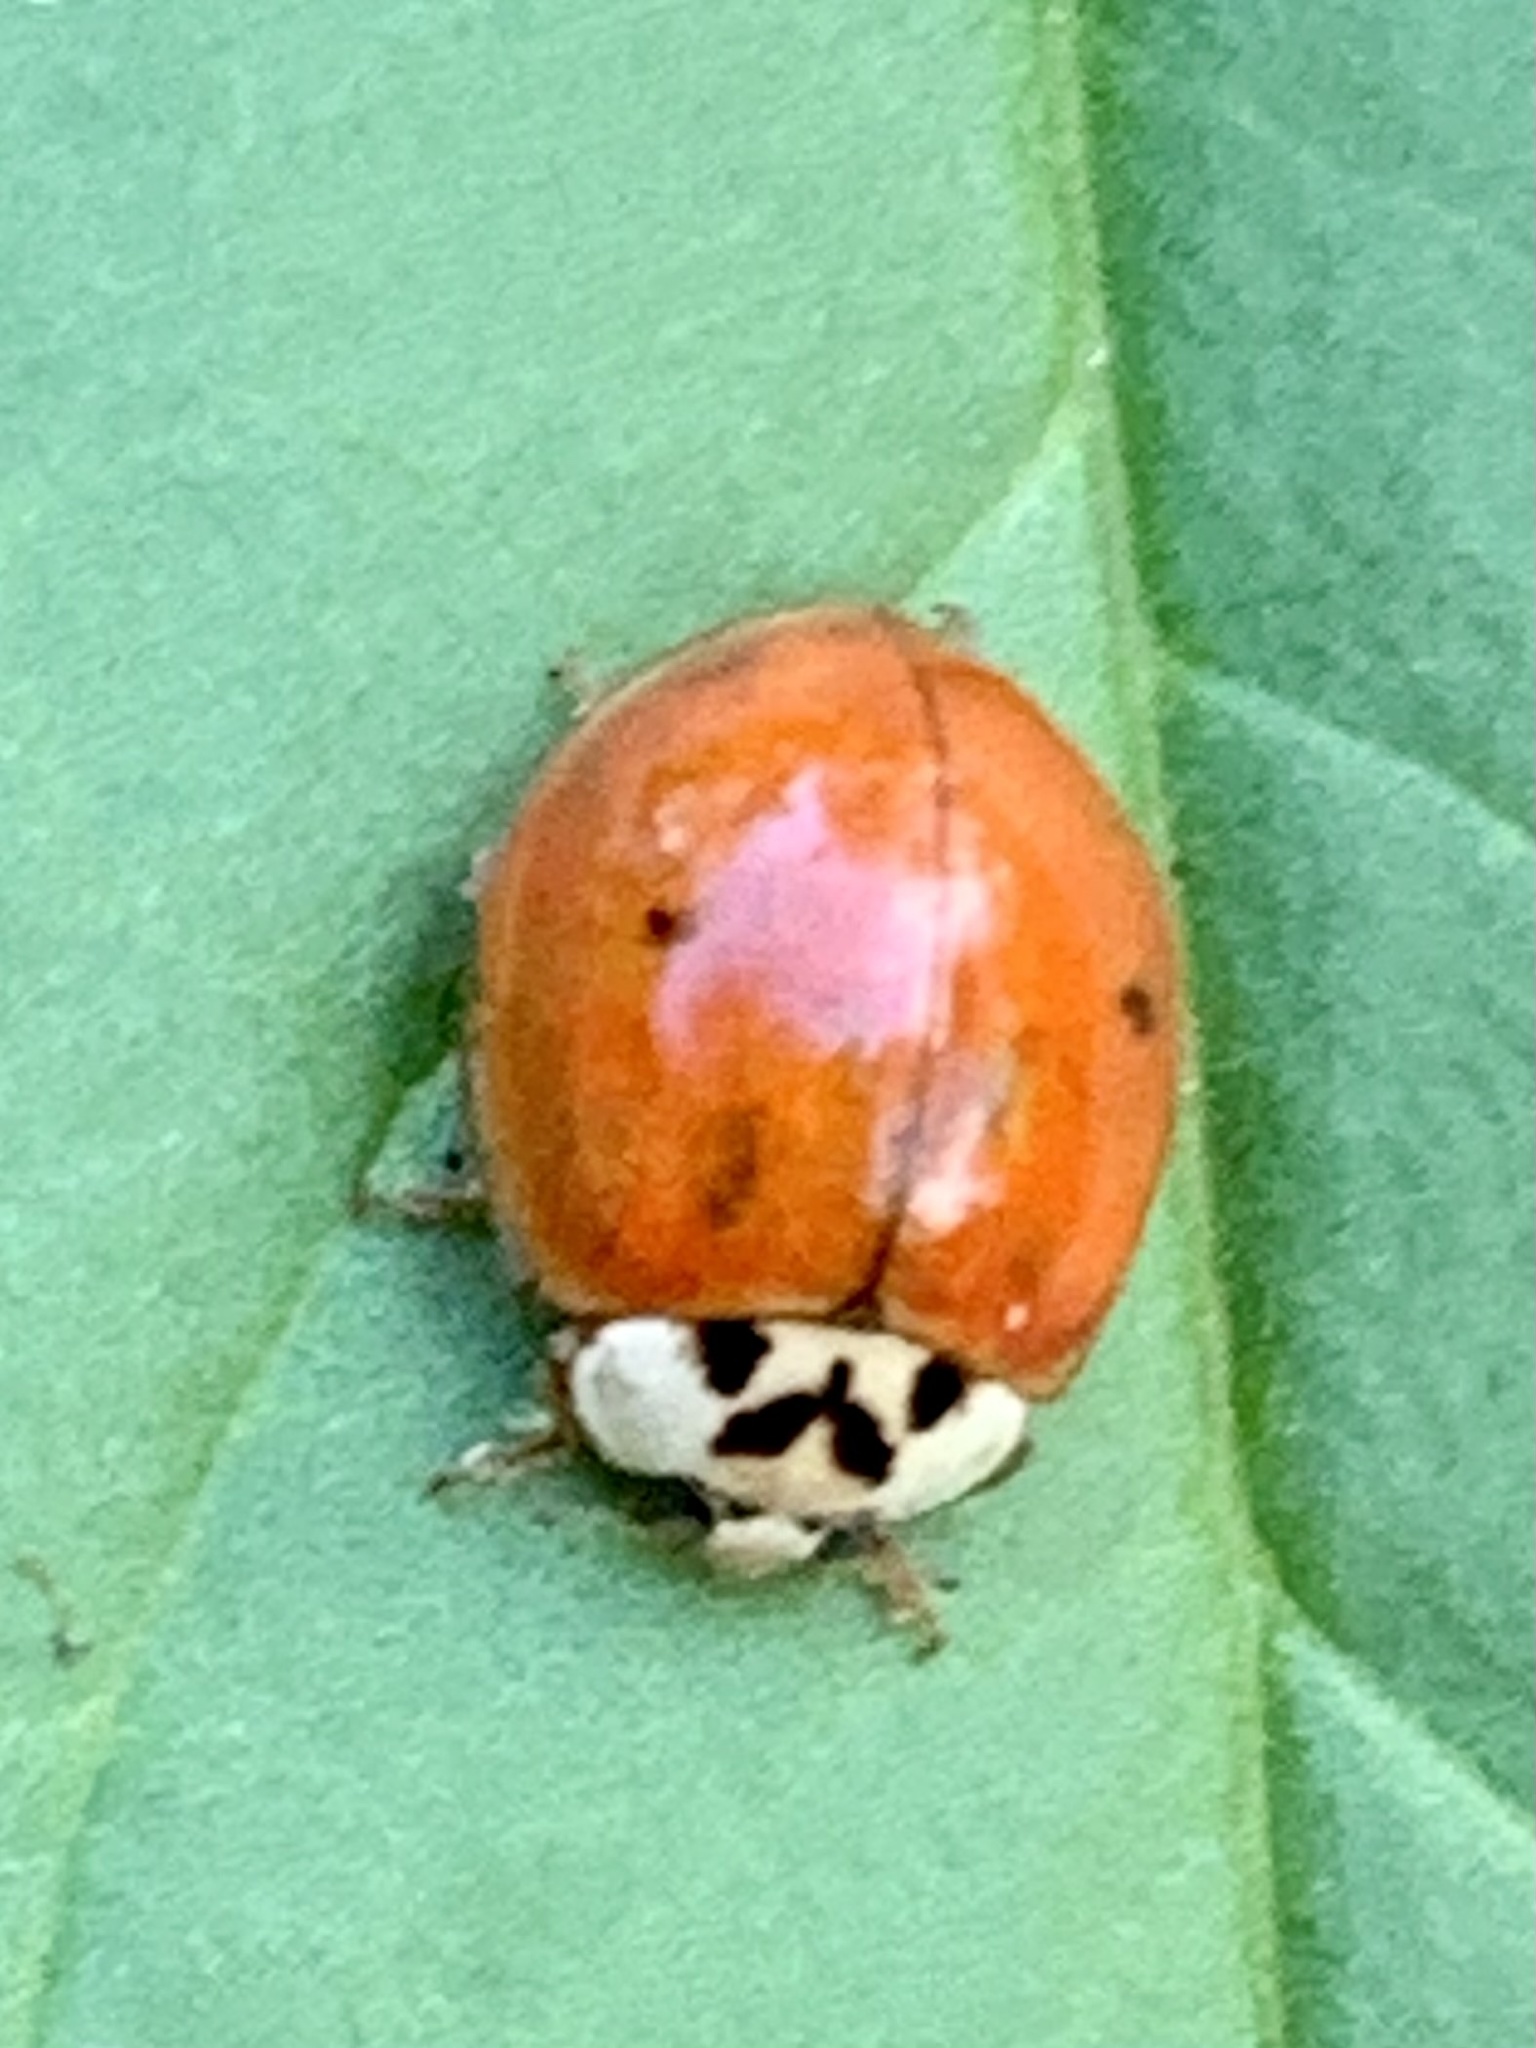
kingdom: Animalia
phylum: Arthropoda
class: Insecta
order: Coleoptera
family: Coccinellidae
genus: Harmonia
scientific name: Harmonia axyridis
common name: Harlequin ladybird
